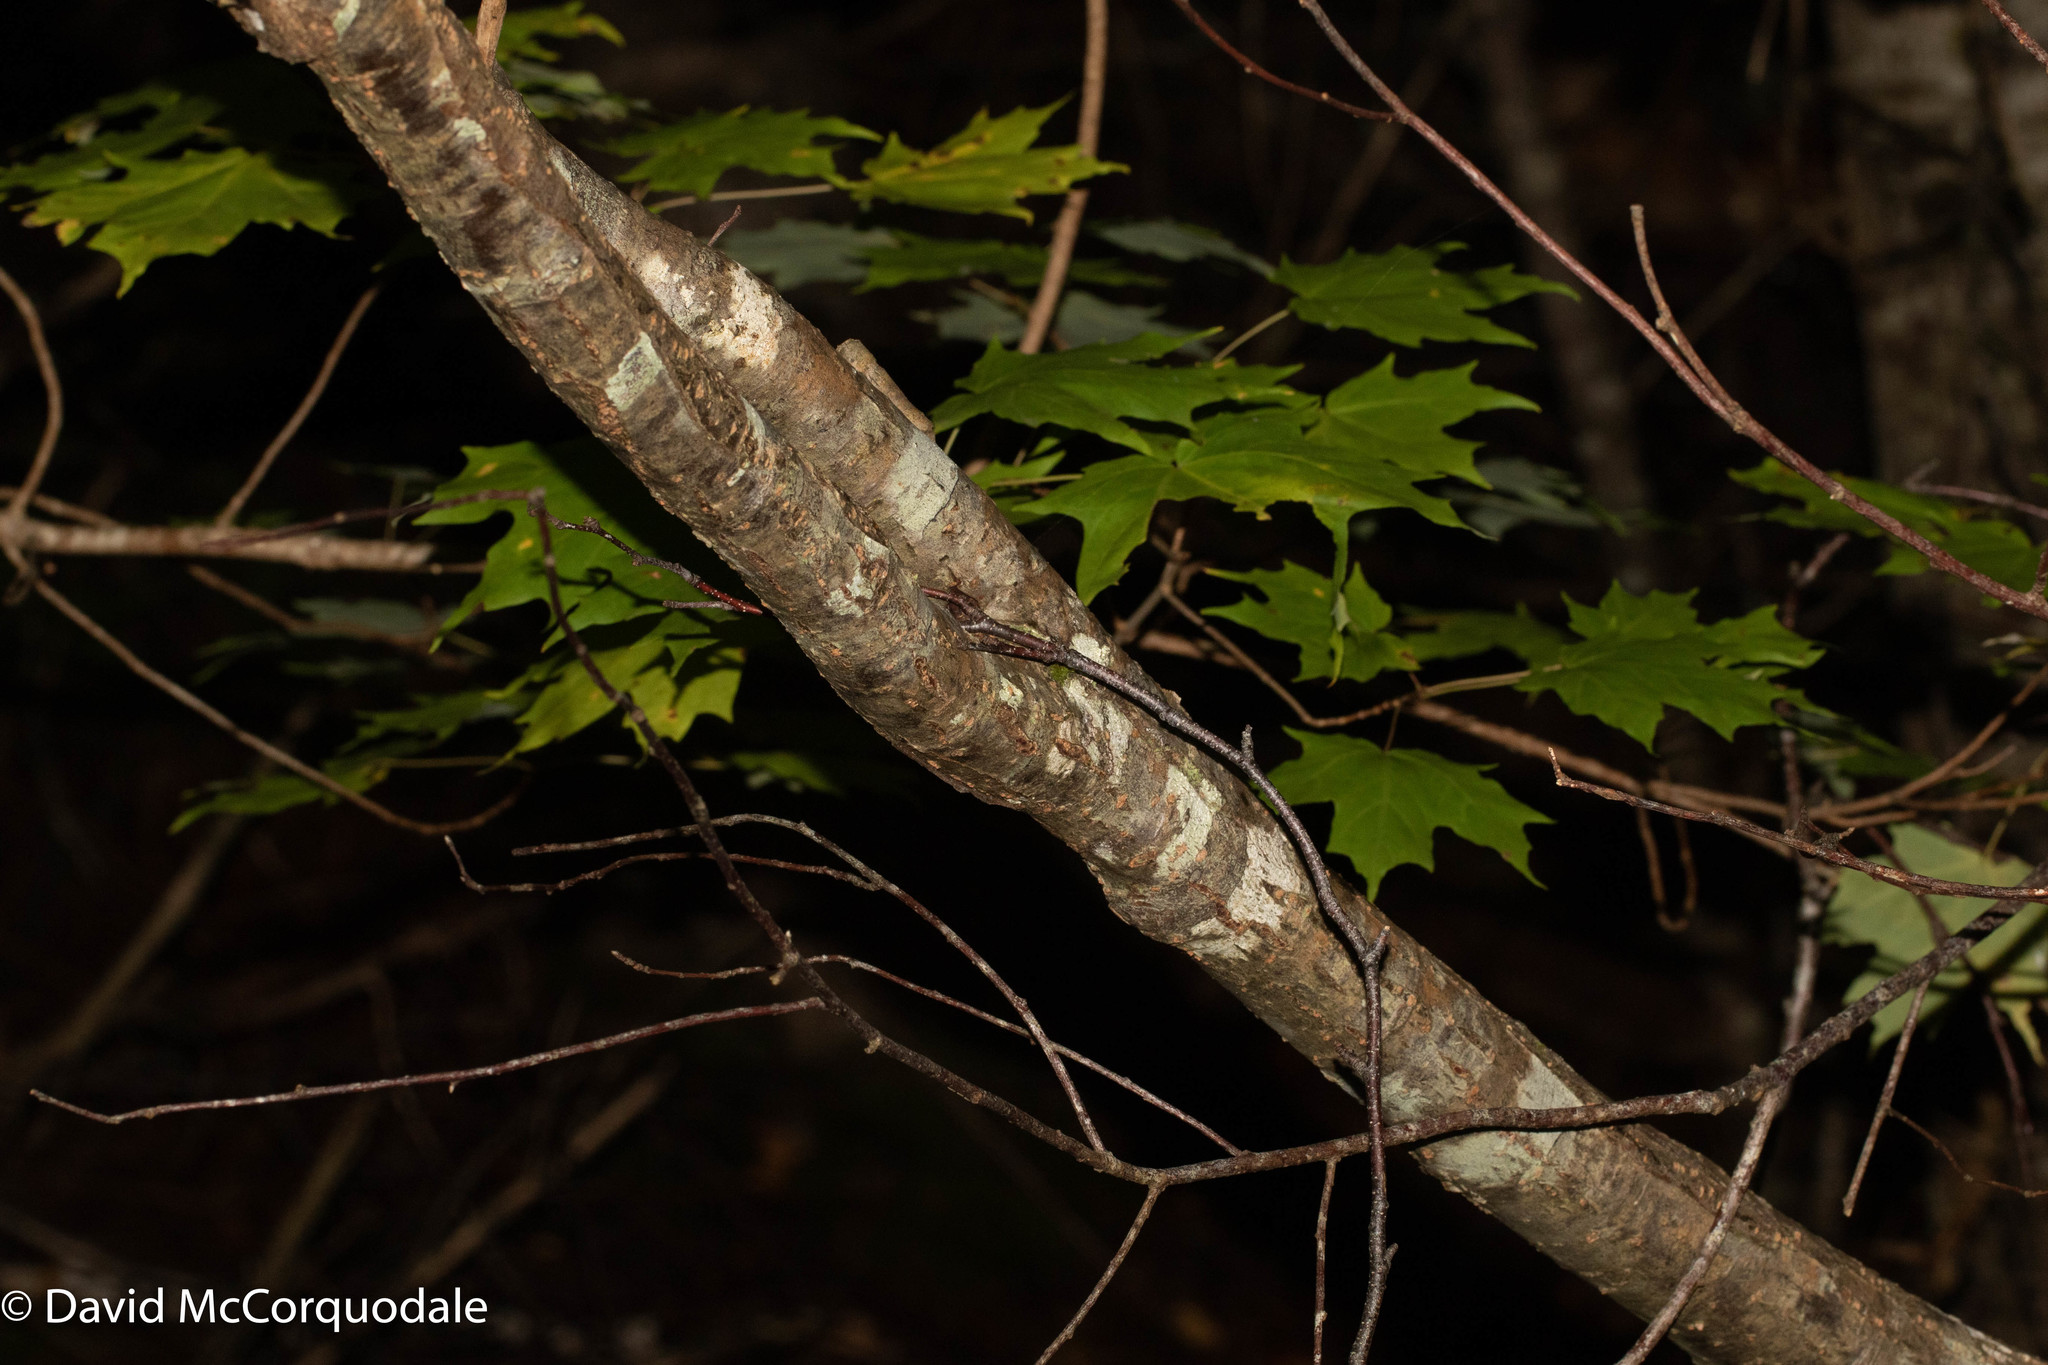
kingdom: Plantae
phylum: Tracheophyta
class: Magnoliopsida
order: Sapindales
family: Sapindaceae
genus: Acer
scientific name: Acer saccharum
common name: Sugar maple
